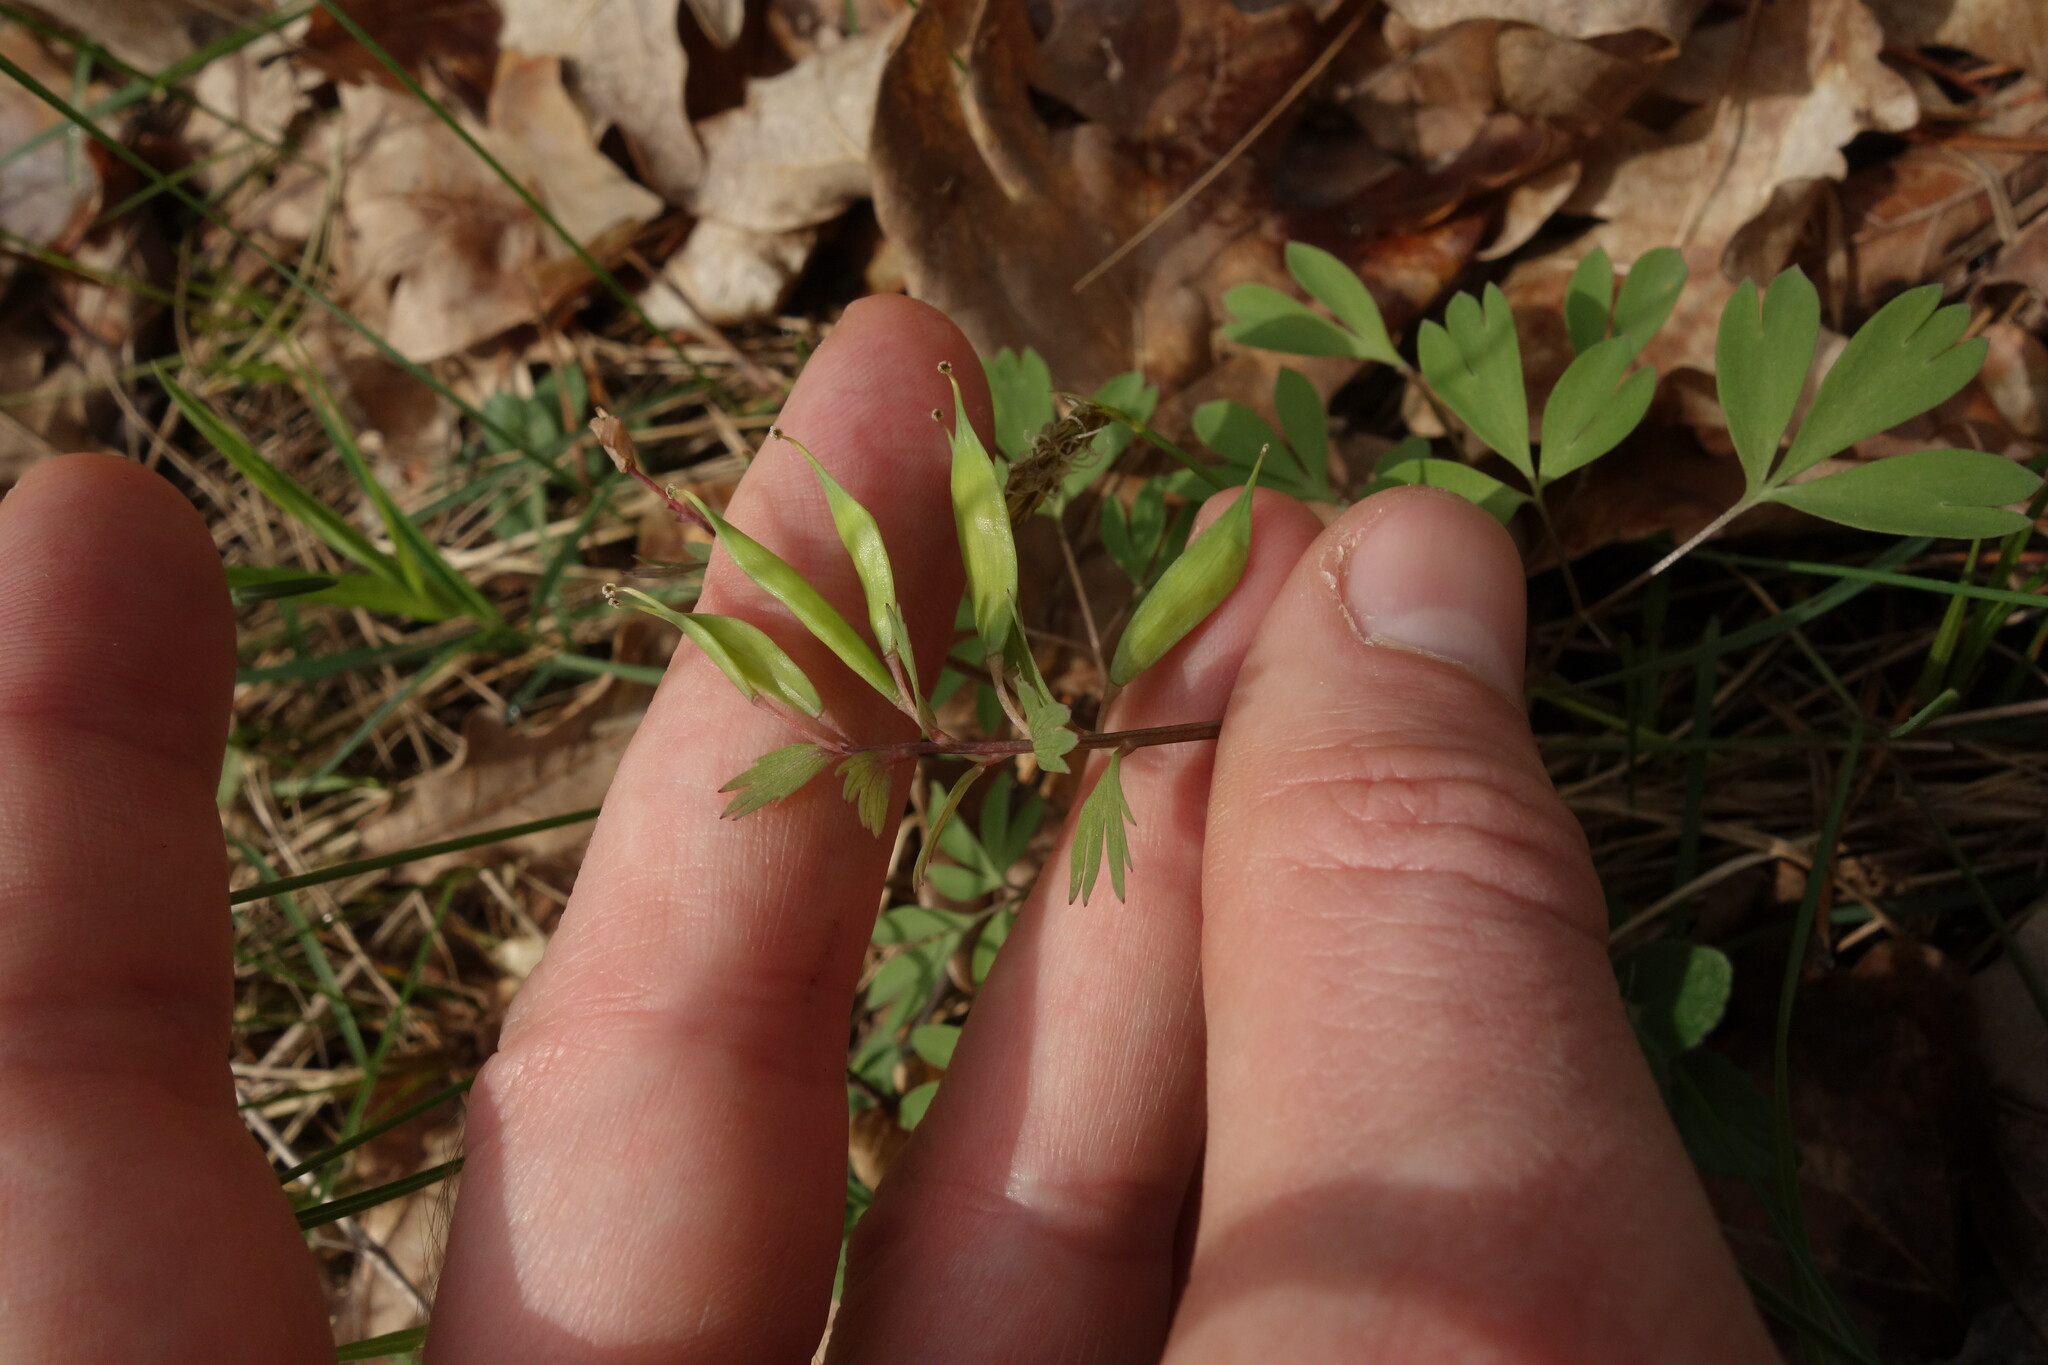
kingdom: Plantae
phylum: Tracheophyta
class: Magnoliopsida
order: Ranunculales
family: Papaveraceae
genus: Corydalis
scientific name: Corydalis solida
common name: Bird-in-a-bush
